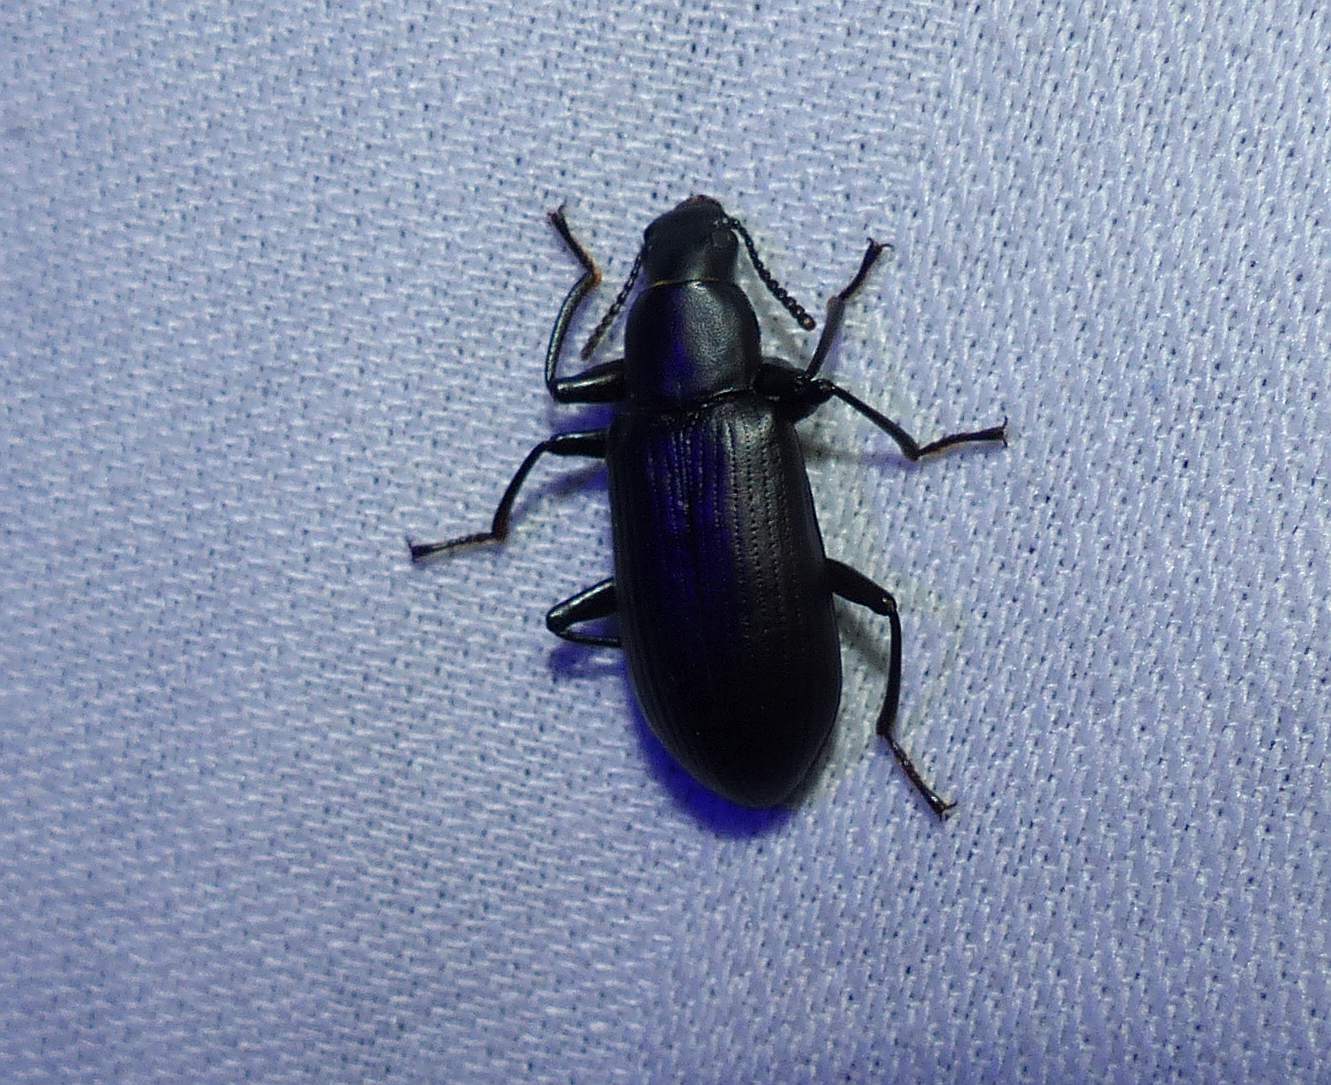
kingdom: Animalia
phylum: Arthropoda
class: Insecta
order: Coleoptera
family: Tenebrionidae
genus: Alobates
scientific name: Alobates pensylvanicus
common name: False mealworm beetle
